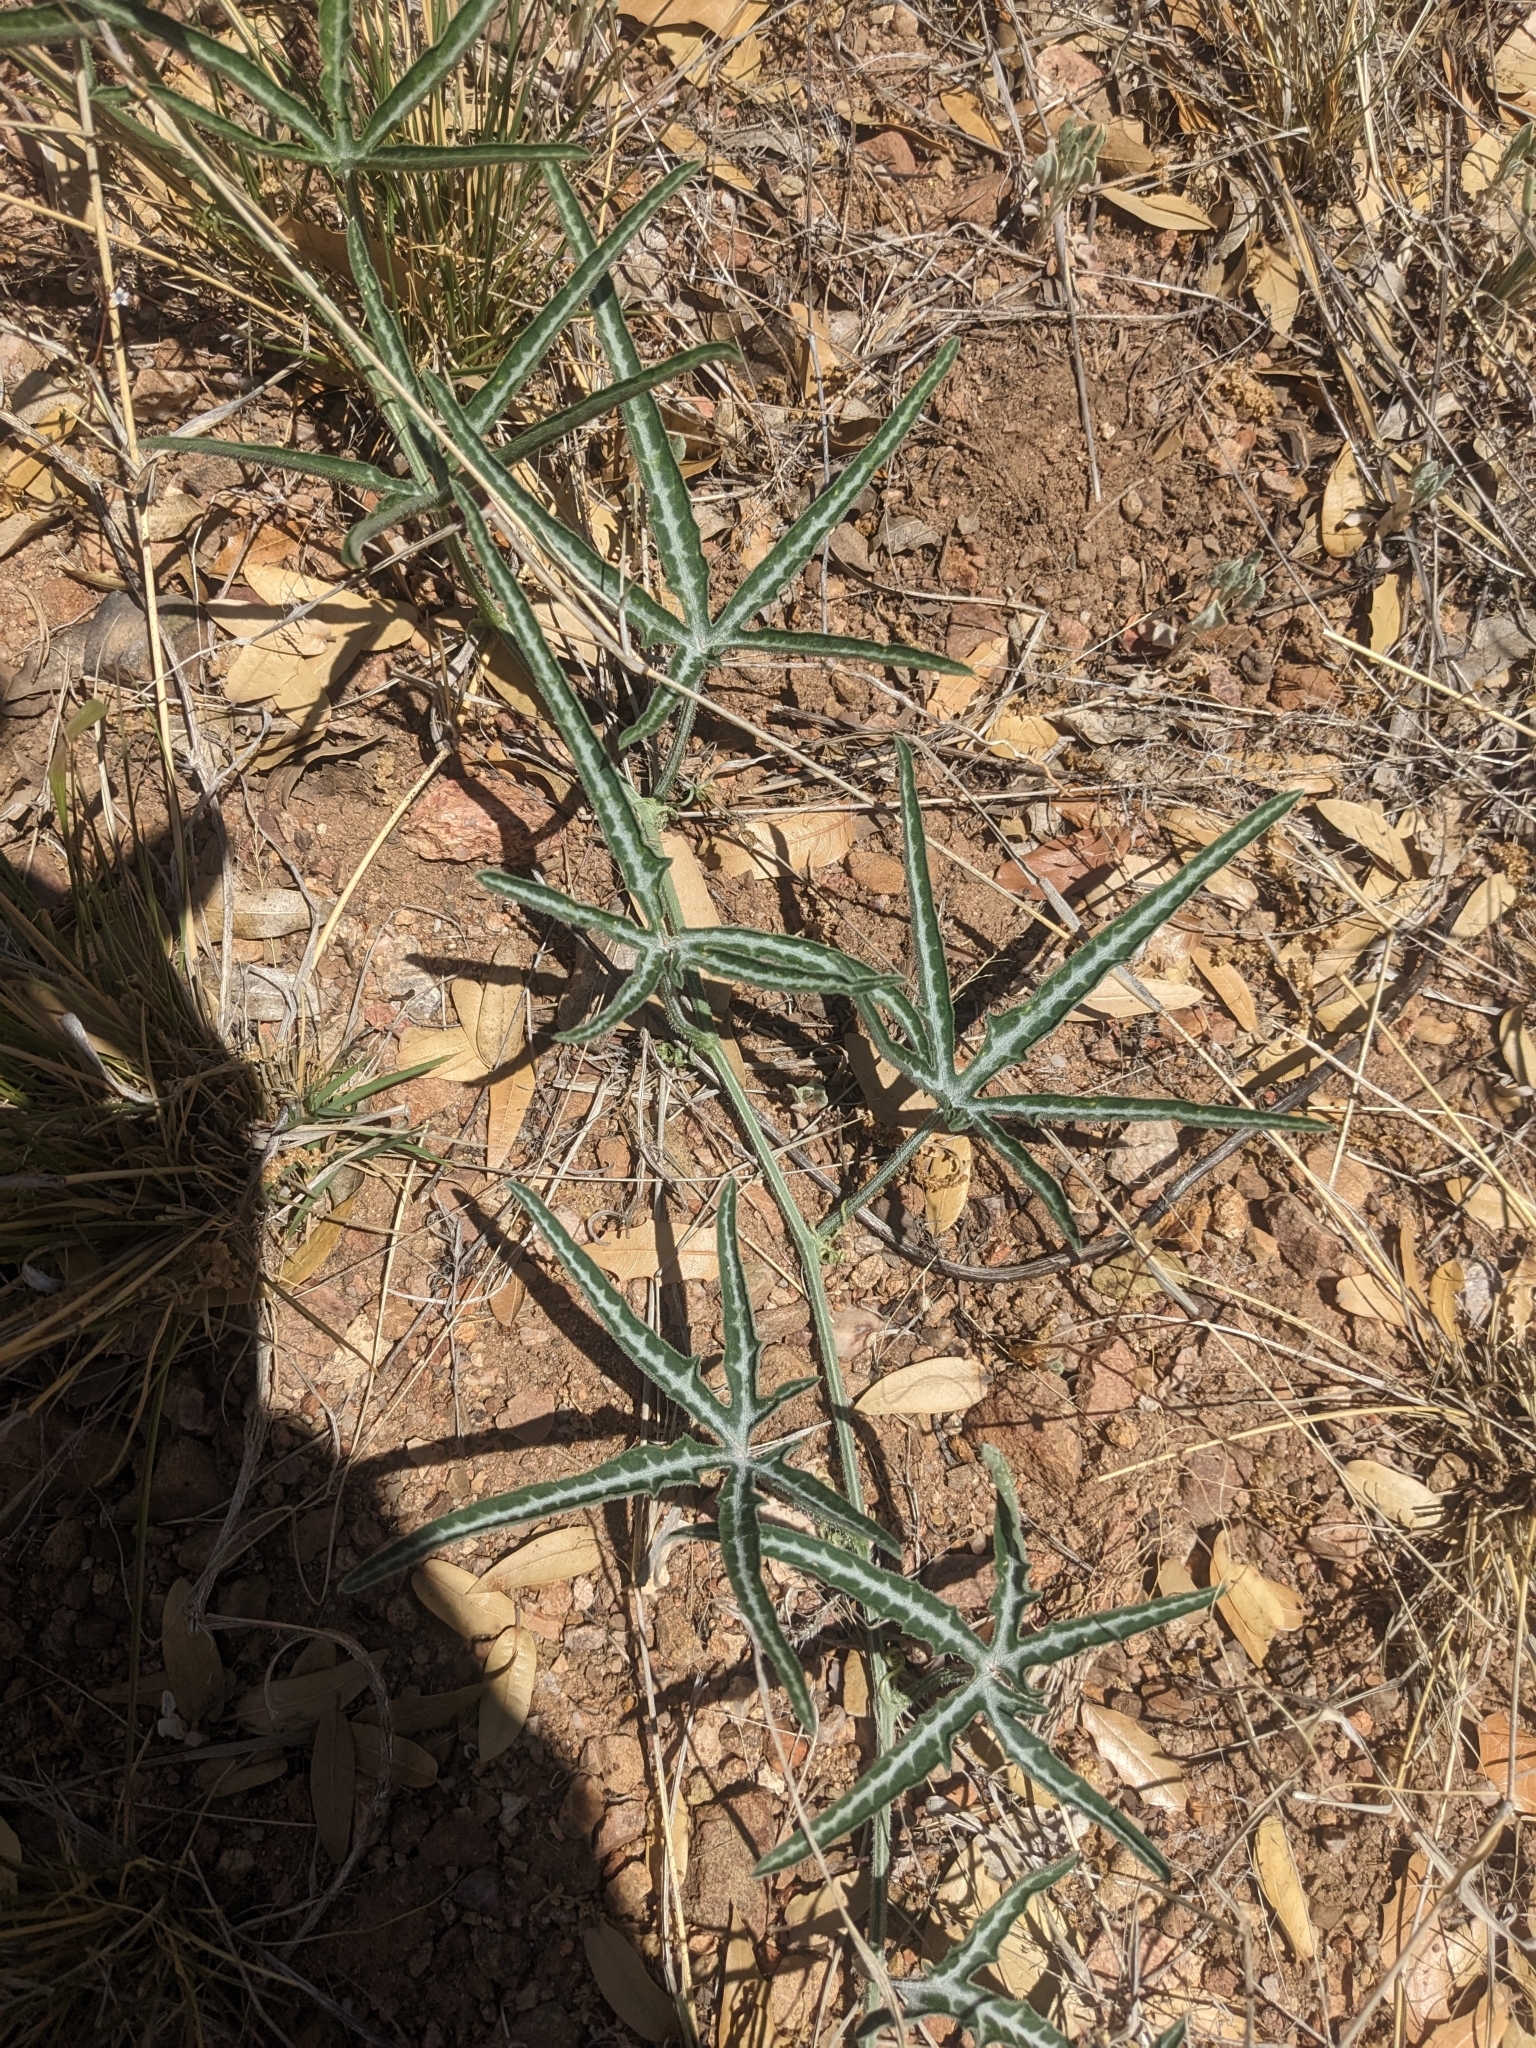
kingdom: Plantae
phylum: Tracheophyta
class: Magnoliopsida
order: Cucurbitales
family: Cucurbitaceae
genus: Cucurbita
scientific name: Cucurbita digitata
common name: Finger-leaf gourd
